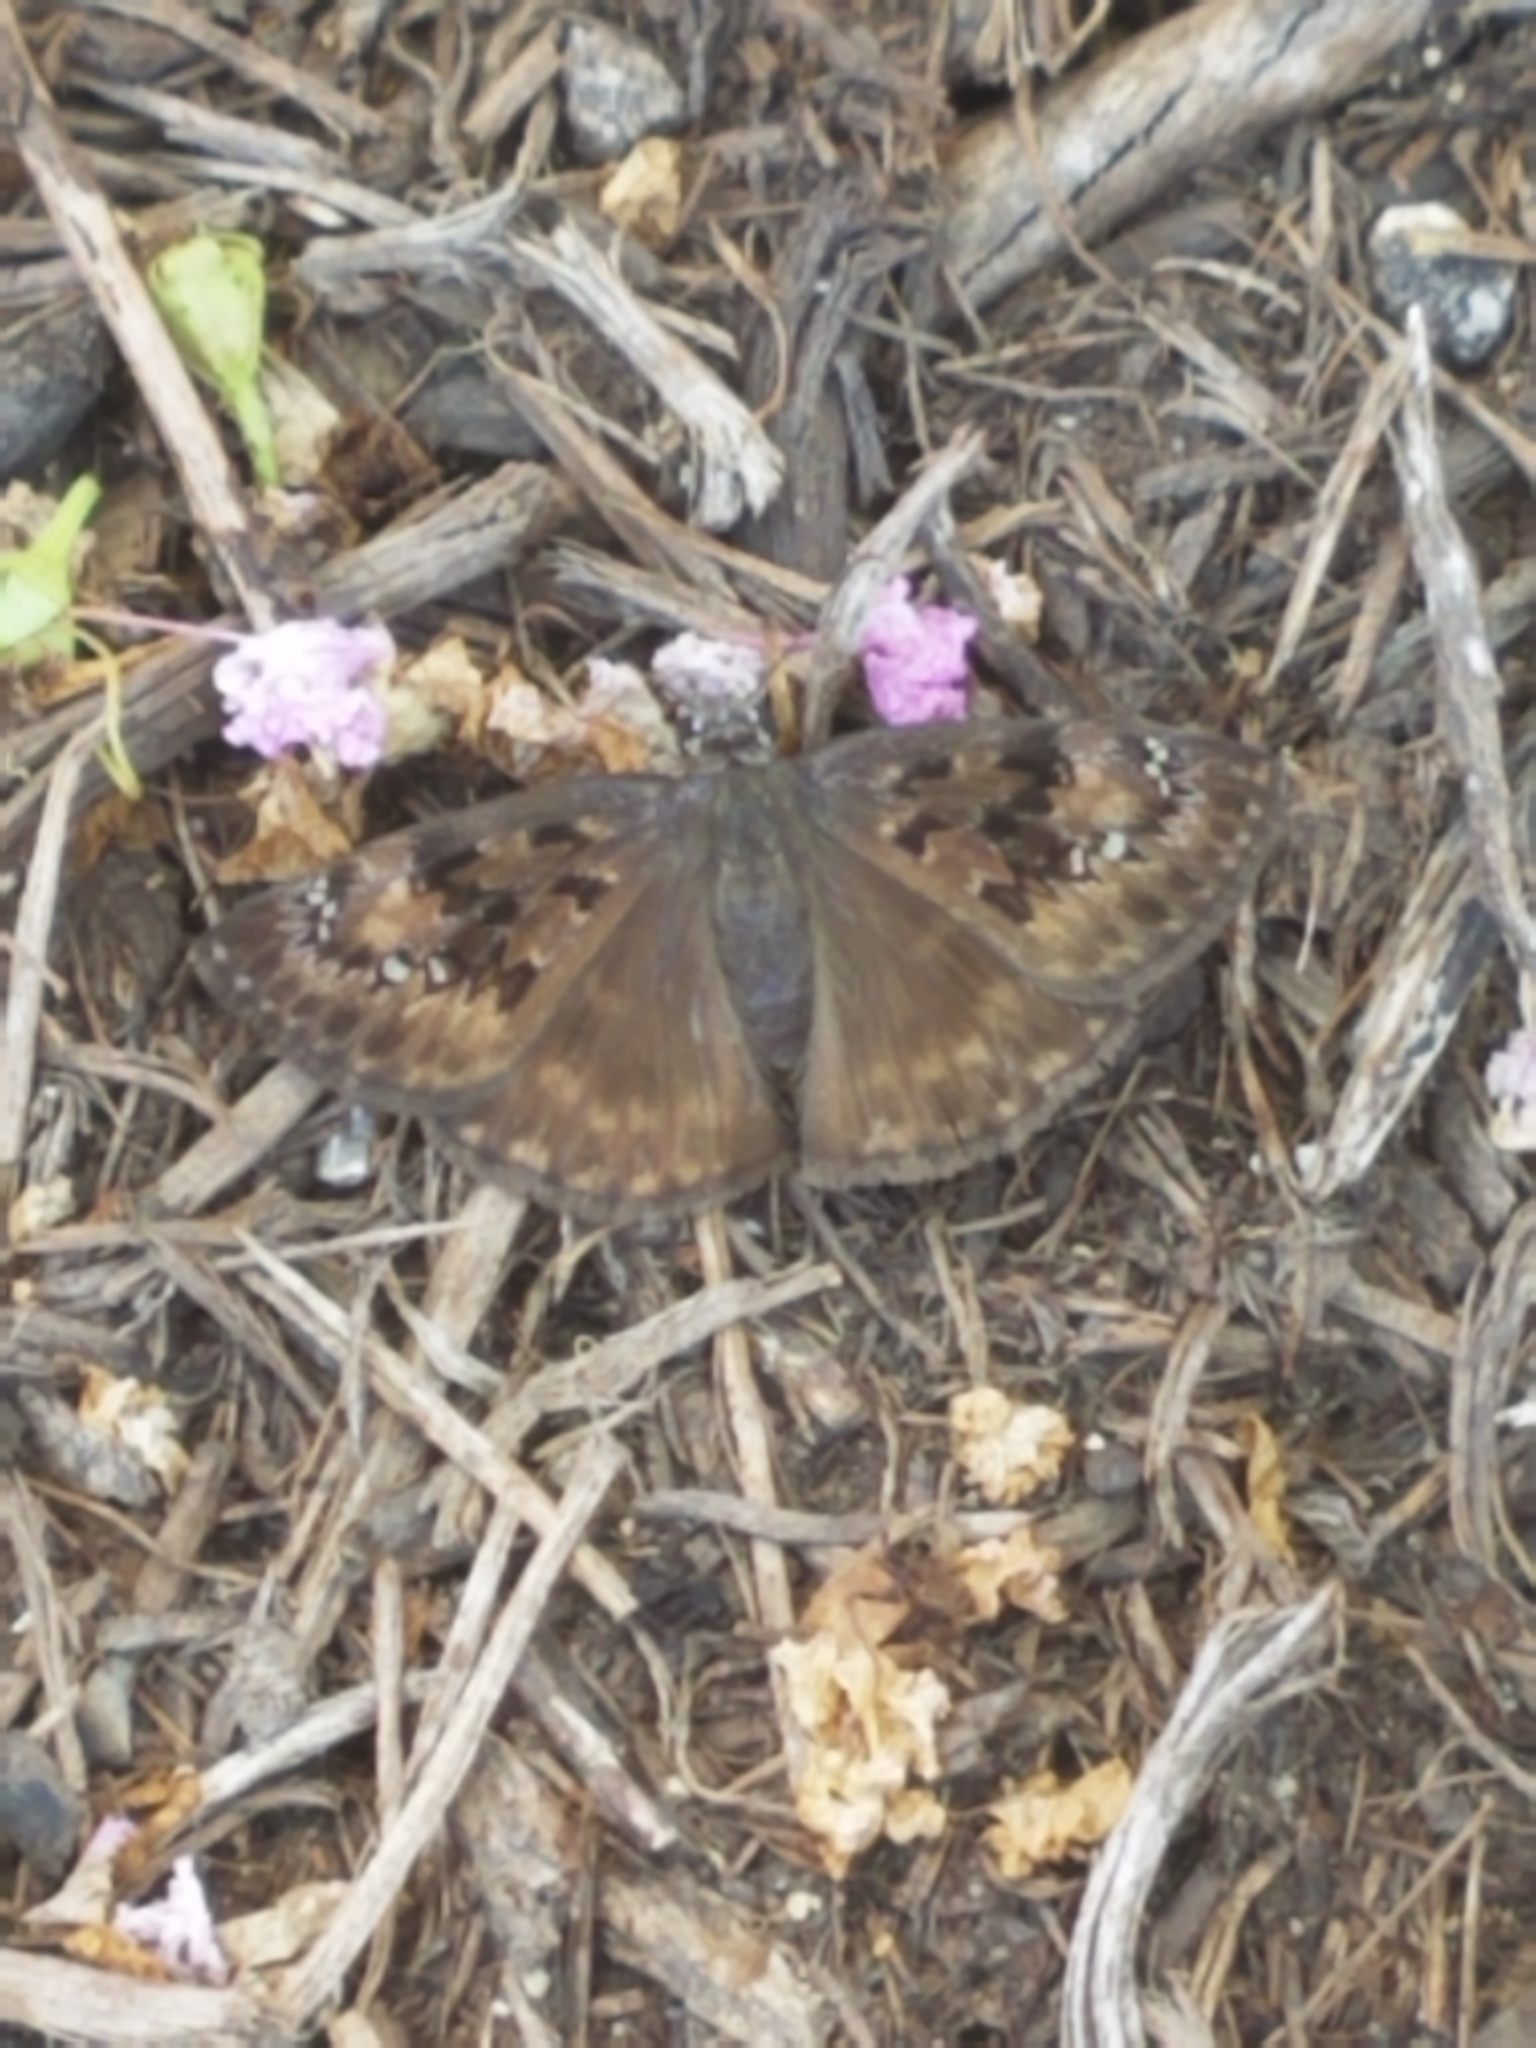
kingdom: Animalia
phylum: Arthropoda
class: Insecta
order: Lepidoptera
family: Hesperiidae
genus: Erynnis
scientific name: Erynnis horatius
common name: Horace's duskywing
